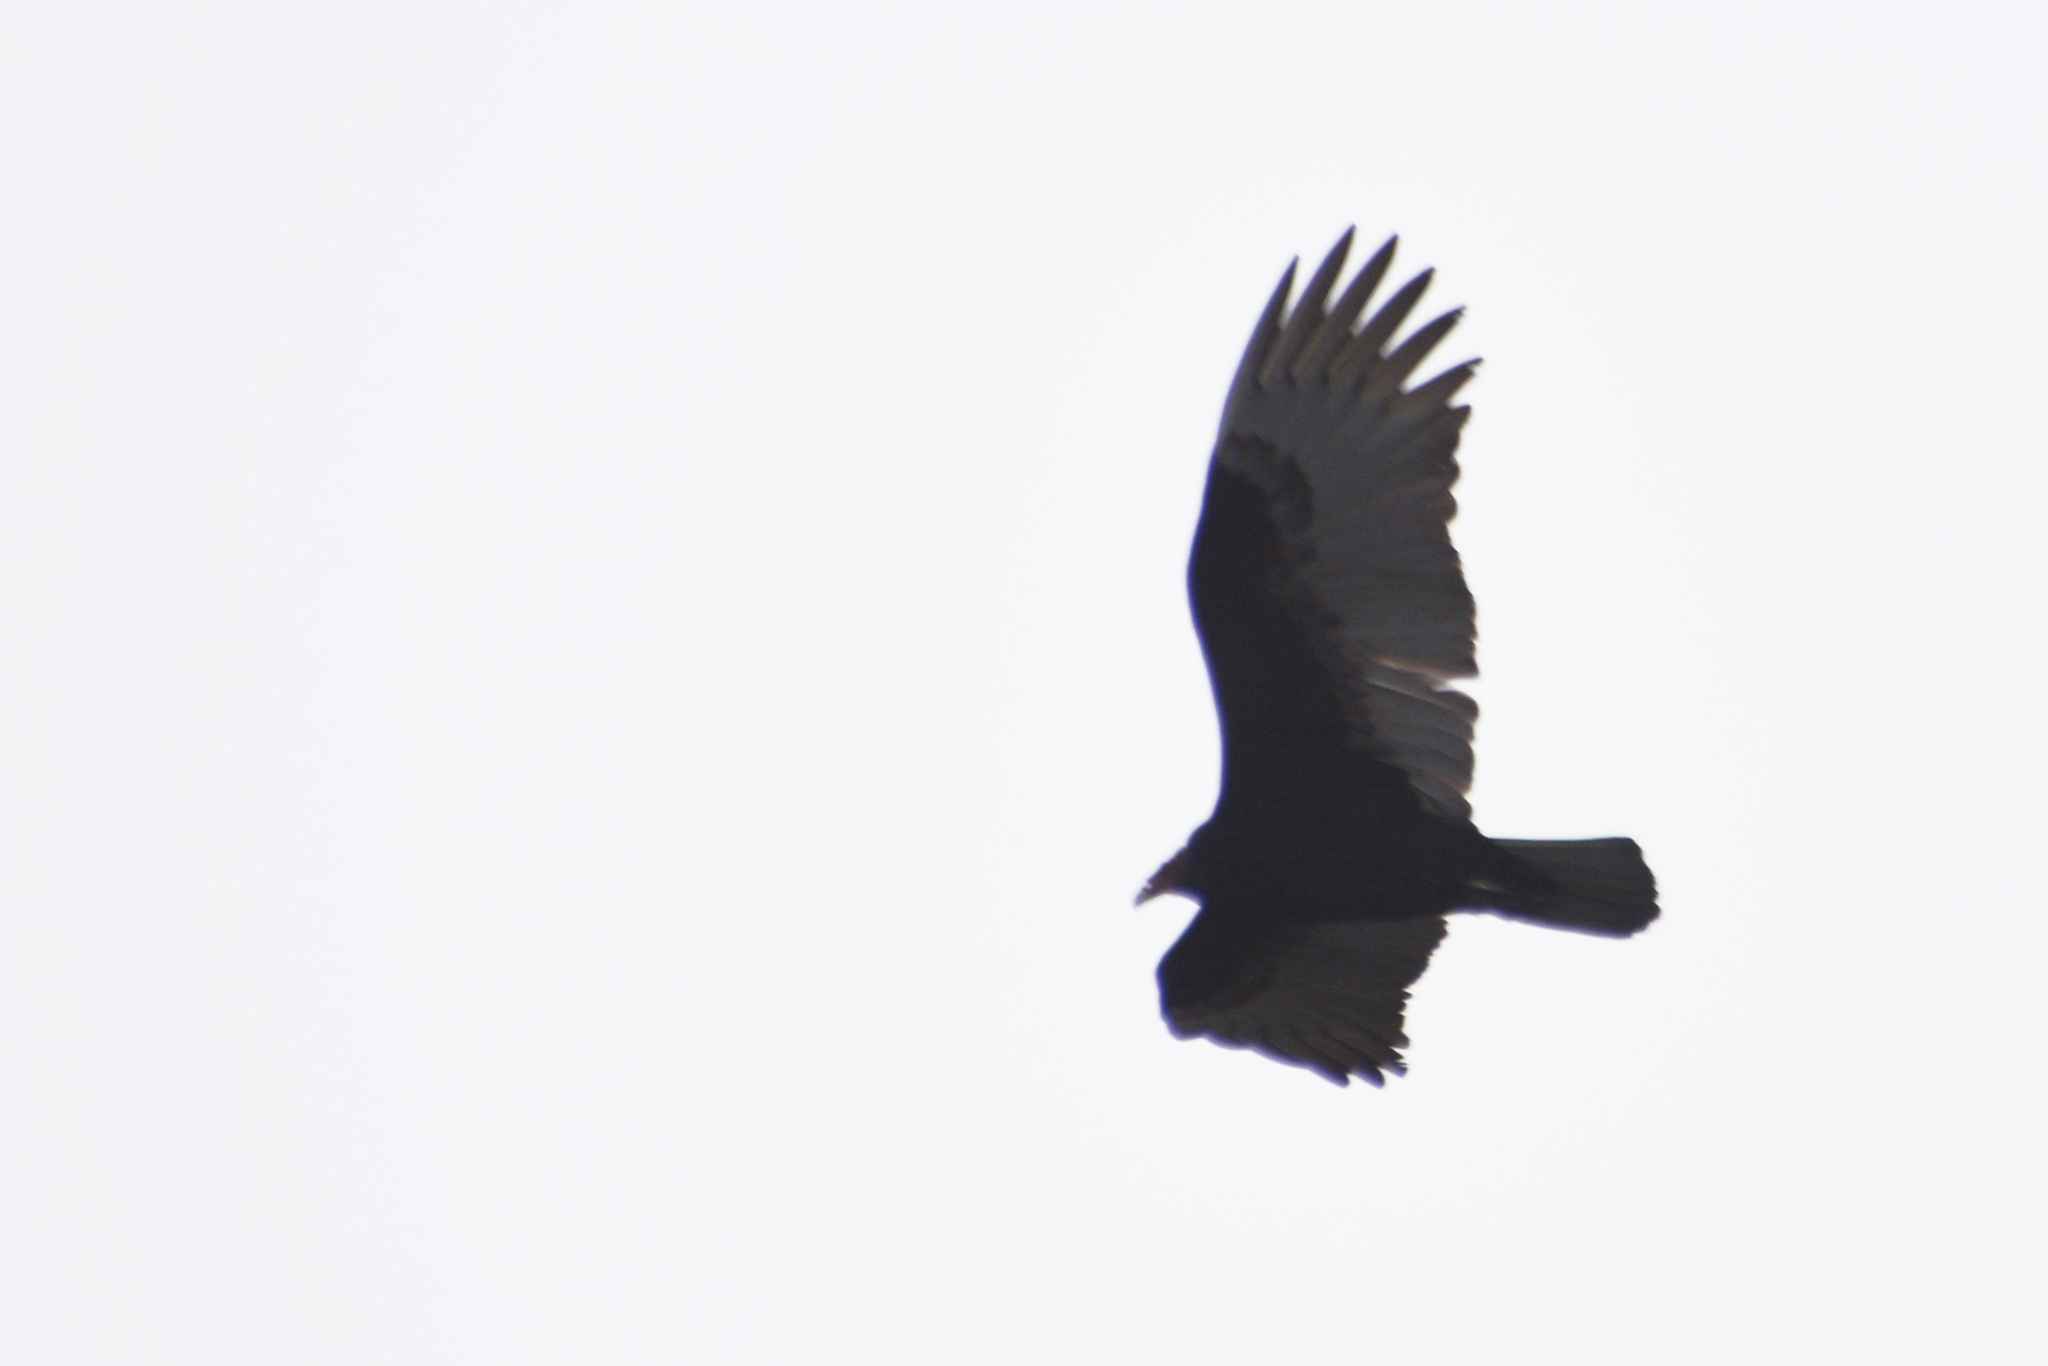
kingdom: Animalia
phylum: Chordata
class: Aves
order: Accipitriformes
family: Cathartidae
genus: Cathartes
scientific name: Cathartes aura
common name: Turkey vulture
